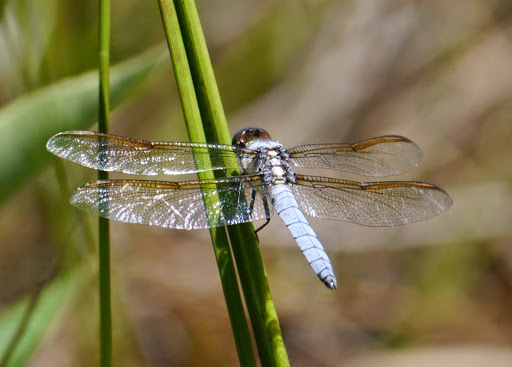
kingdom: Animalia
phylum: Arthropoda
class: Insecta
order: Odonata
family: Libellulidae
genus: Libellula
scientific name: Libellula flavida
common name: Yellow-sided skimmer
